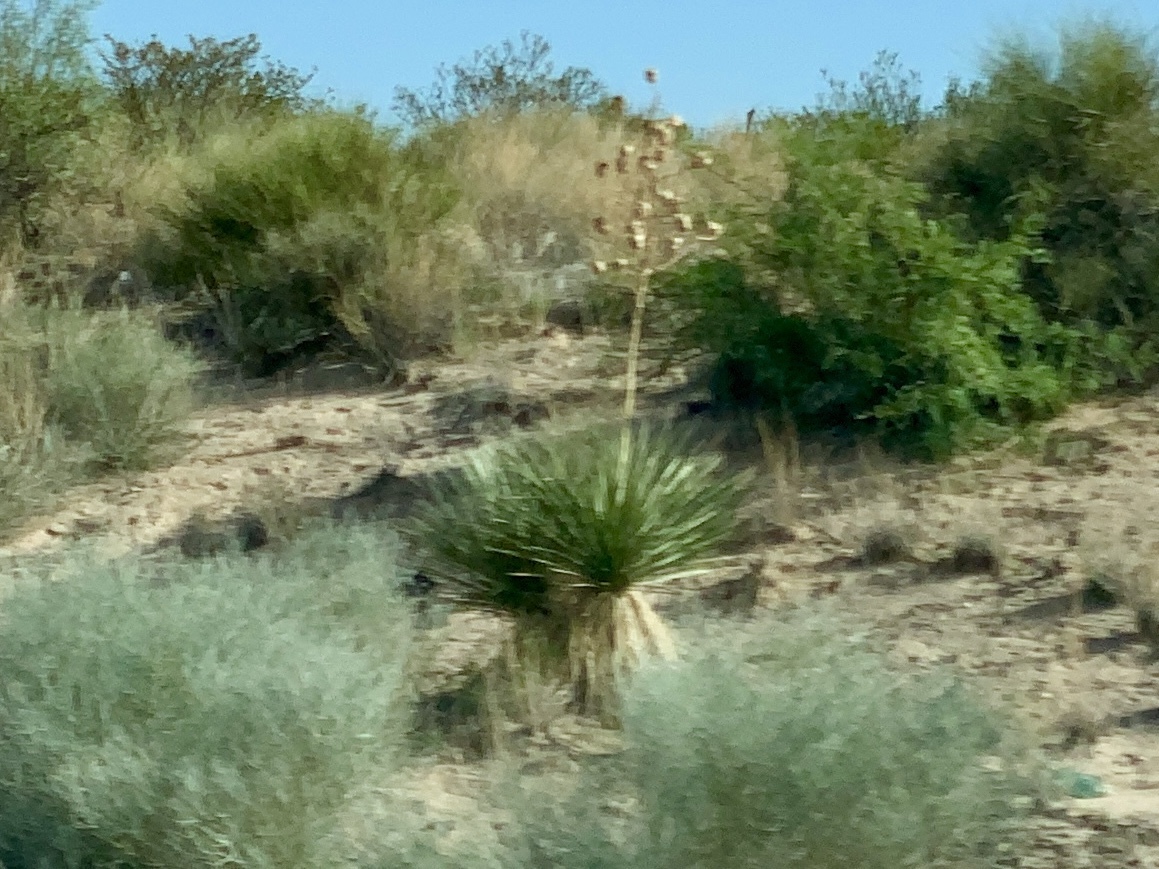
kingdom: Plantae
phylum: Tracheophyta
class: Liliopsida
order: Asparagales
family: Asparagaceae
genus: Yucca
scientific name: Yucca elata
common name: Palmella
